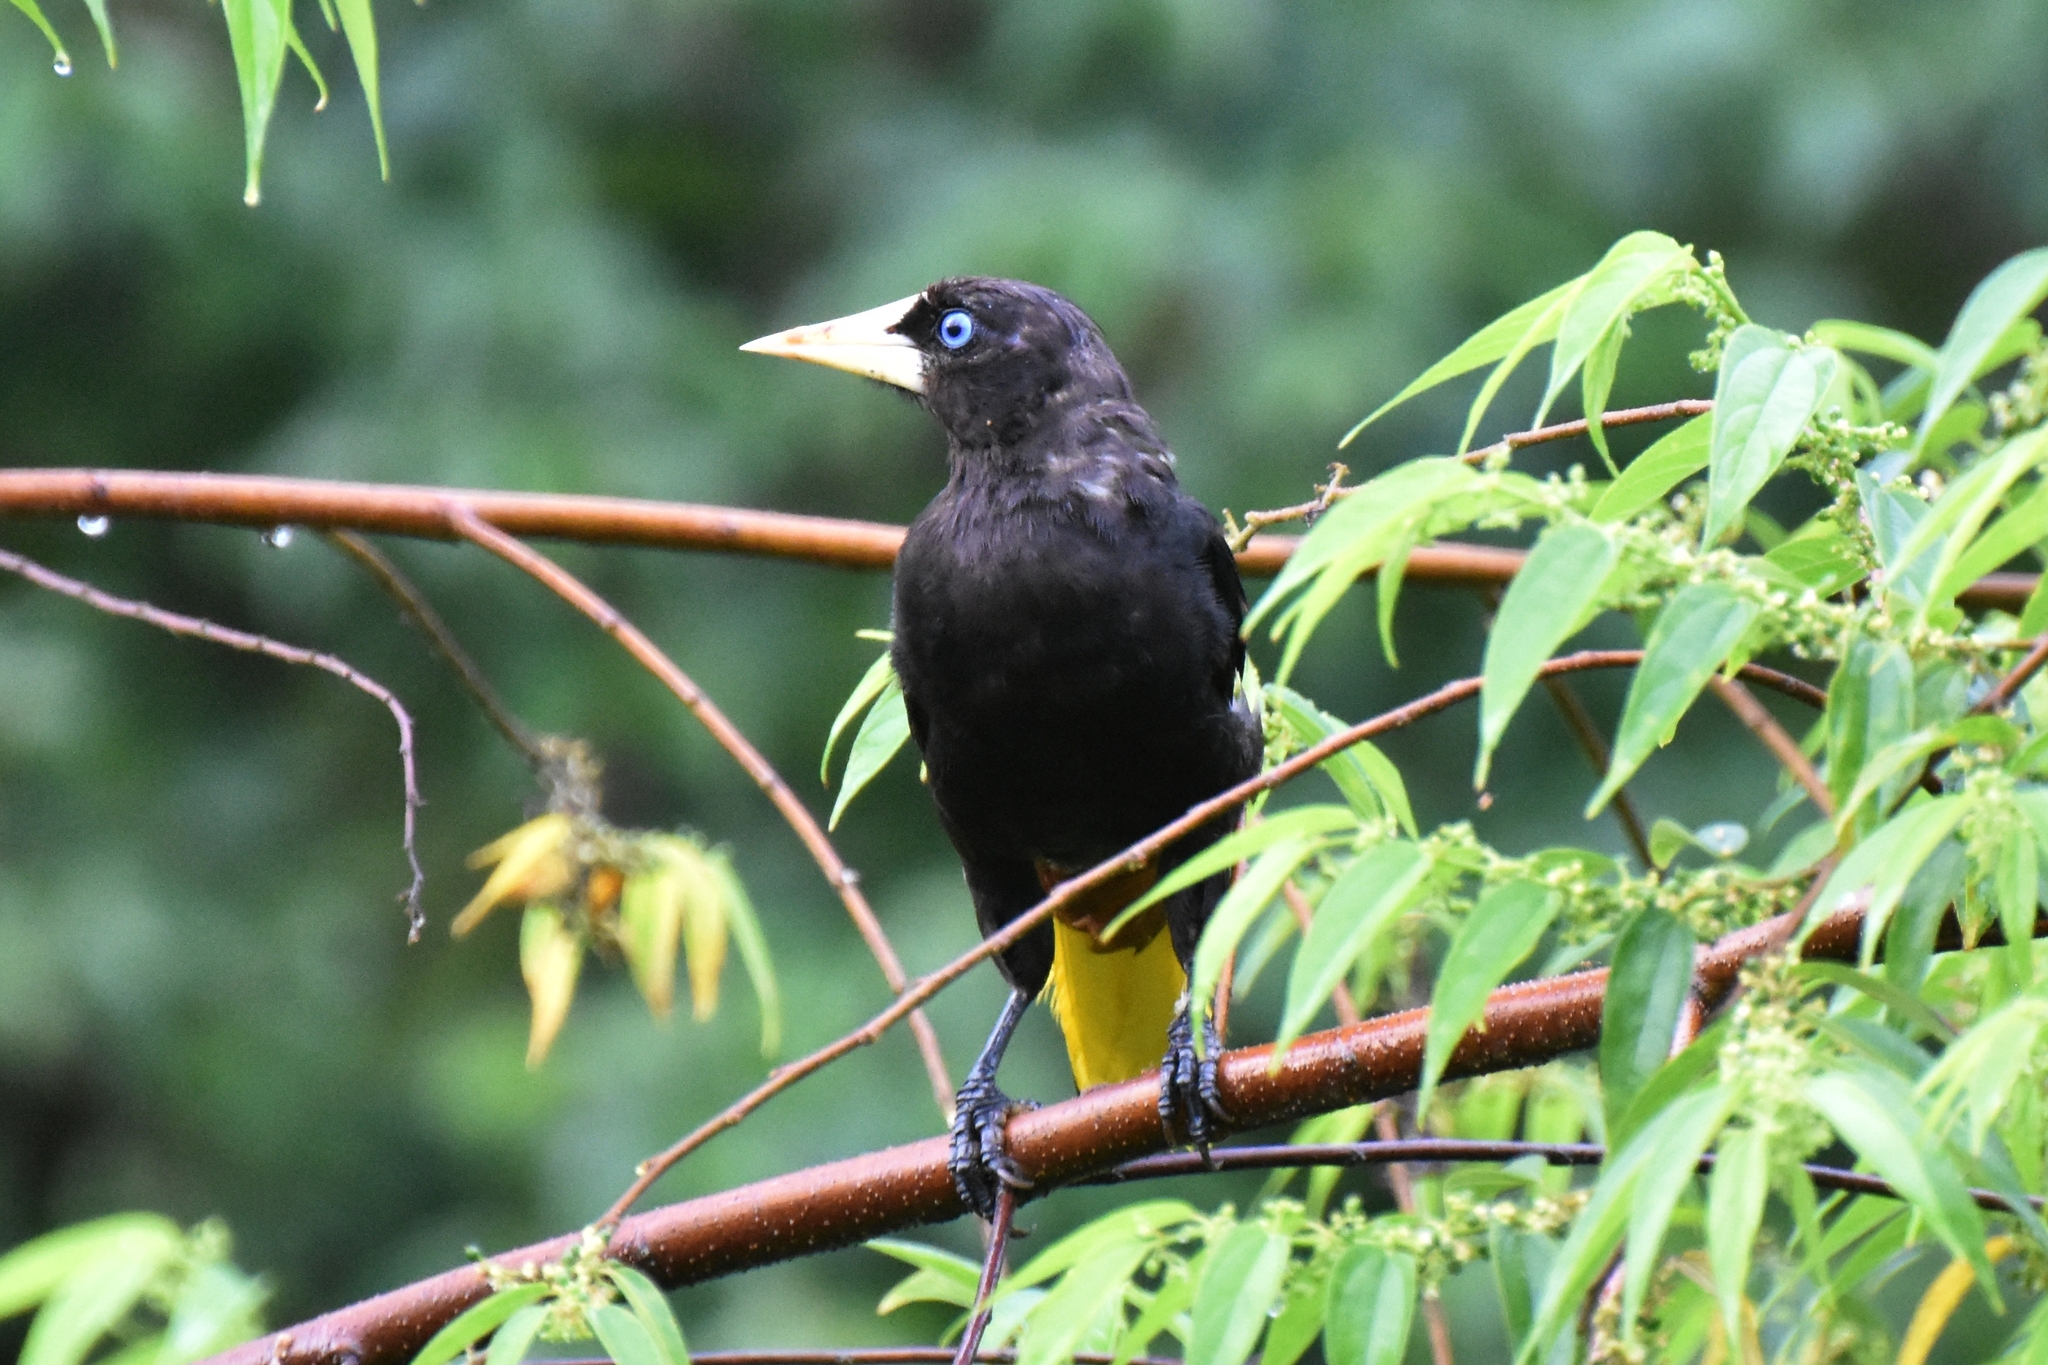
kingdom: Animalia
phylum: Chordata
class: Aves
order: Passeriformes
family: Icteridae
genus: Psarocolius
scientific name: Psarocolius decumanus
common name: Crested oropendola
